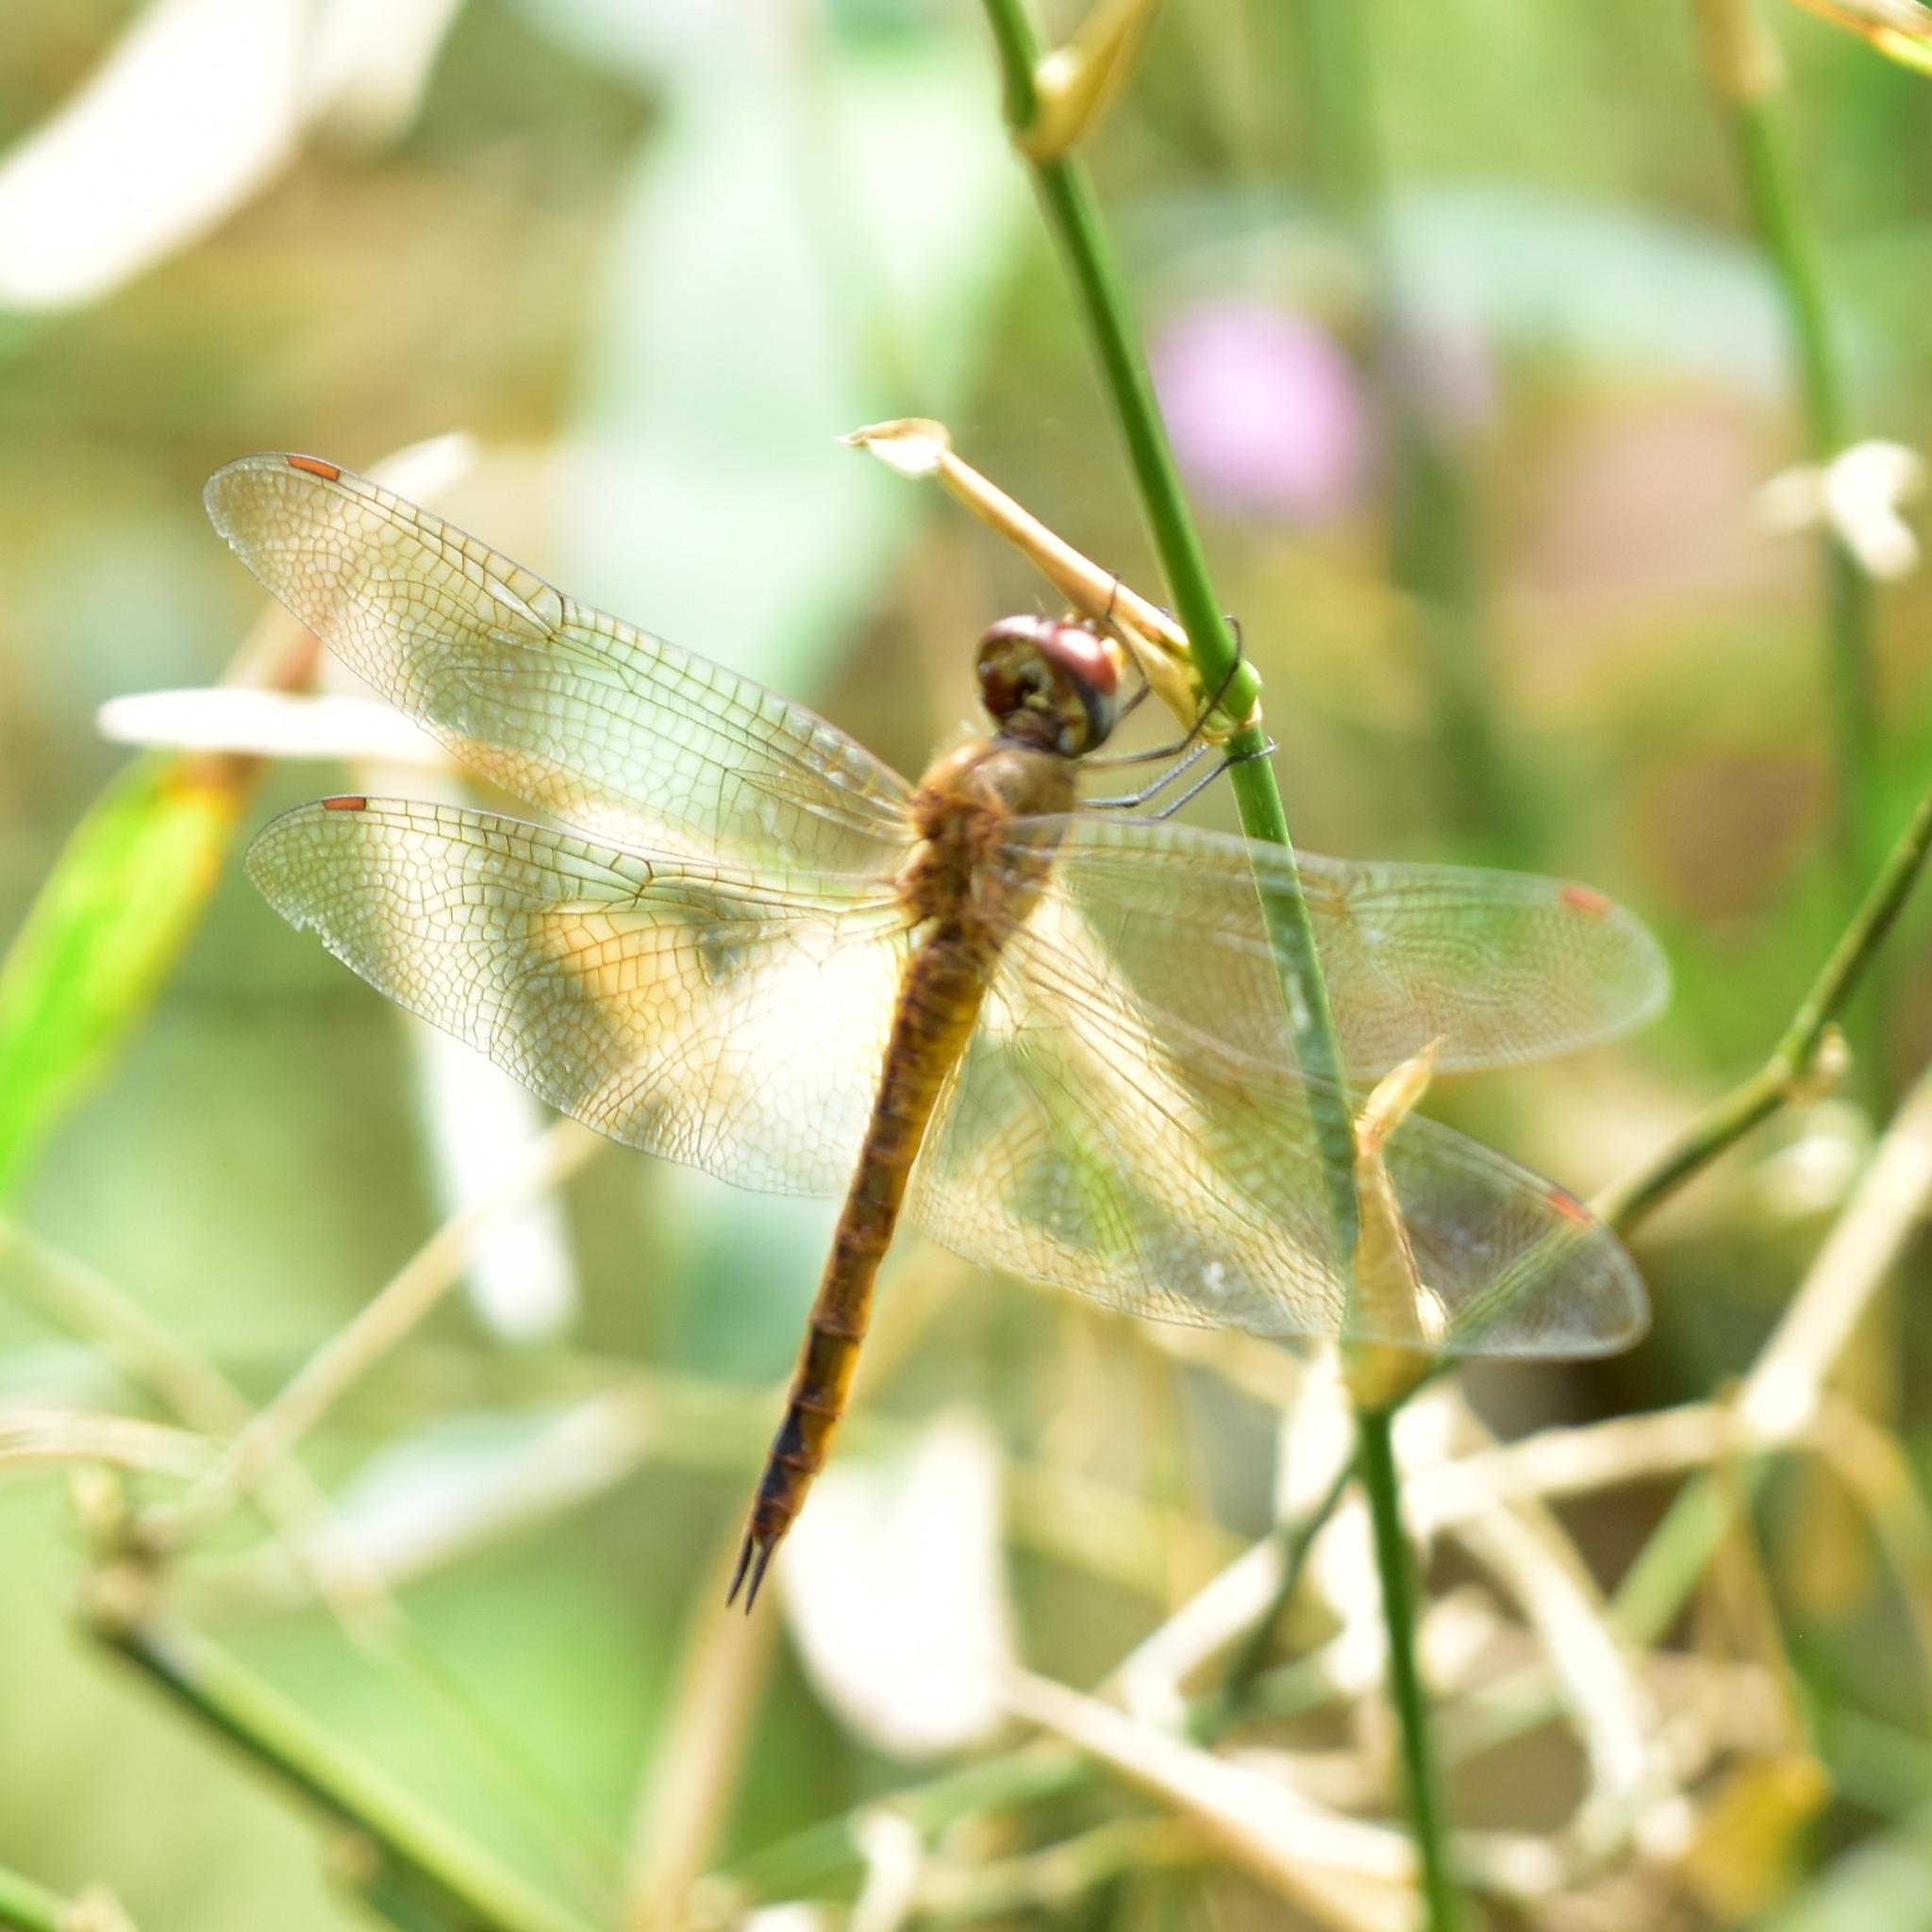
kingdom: Animalia
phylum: Arthropoda
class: Insecta
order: Odonata
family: Libellulidae
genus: Pantala
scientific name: Pantala flavescens
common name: Wandering glider
